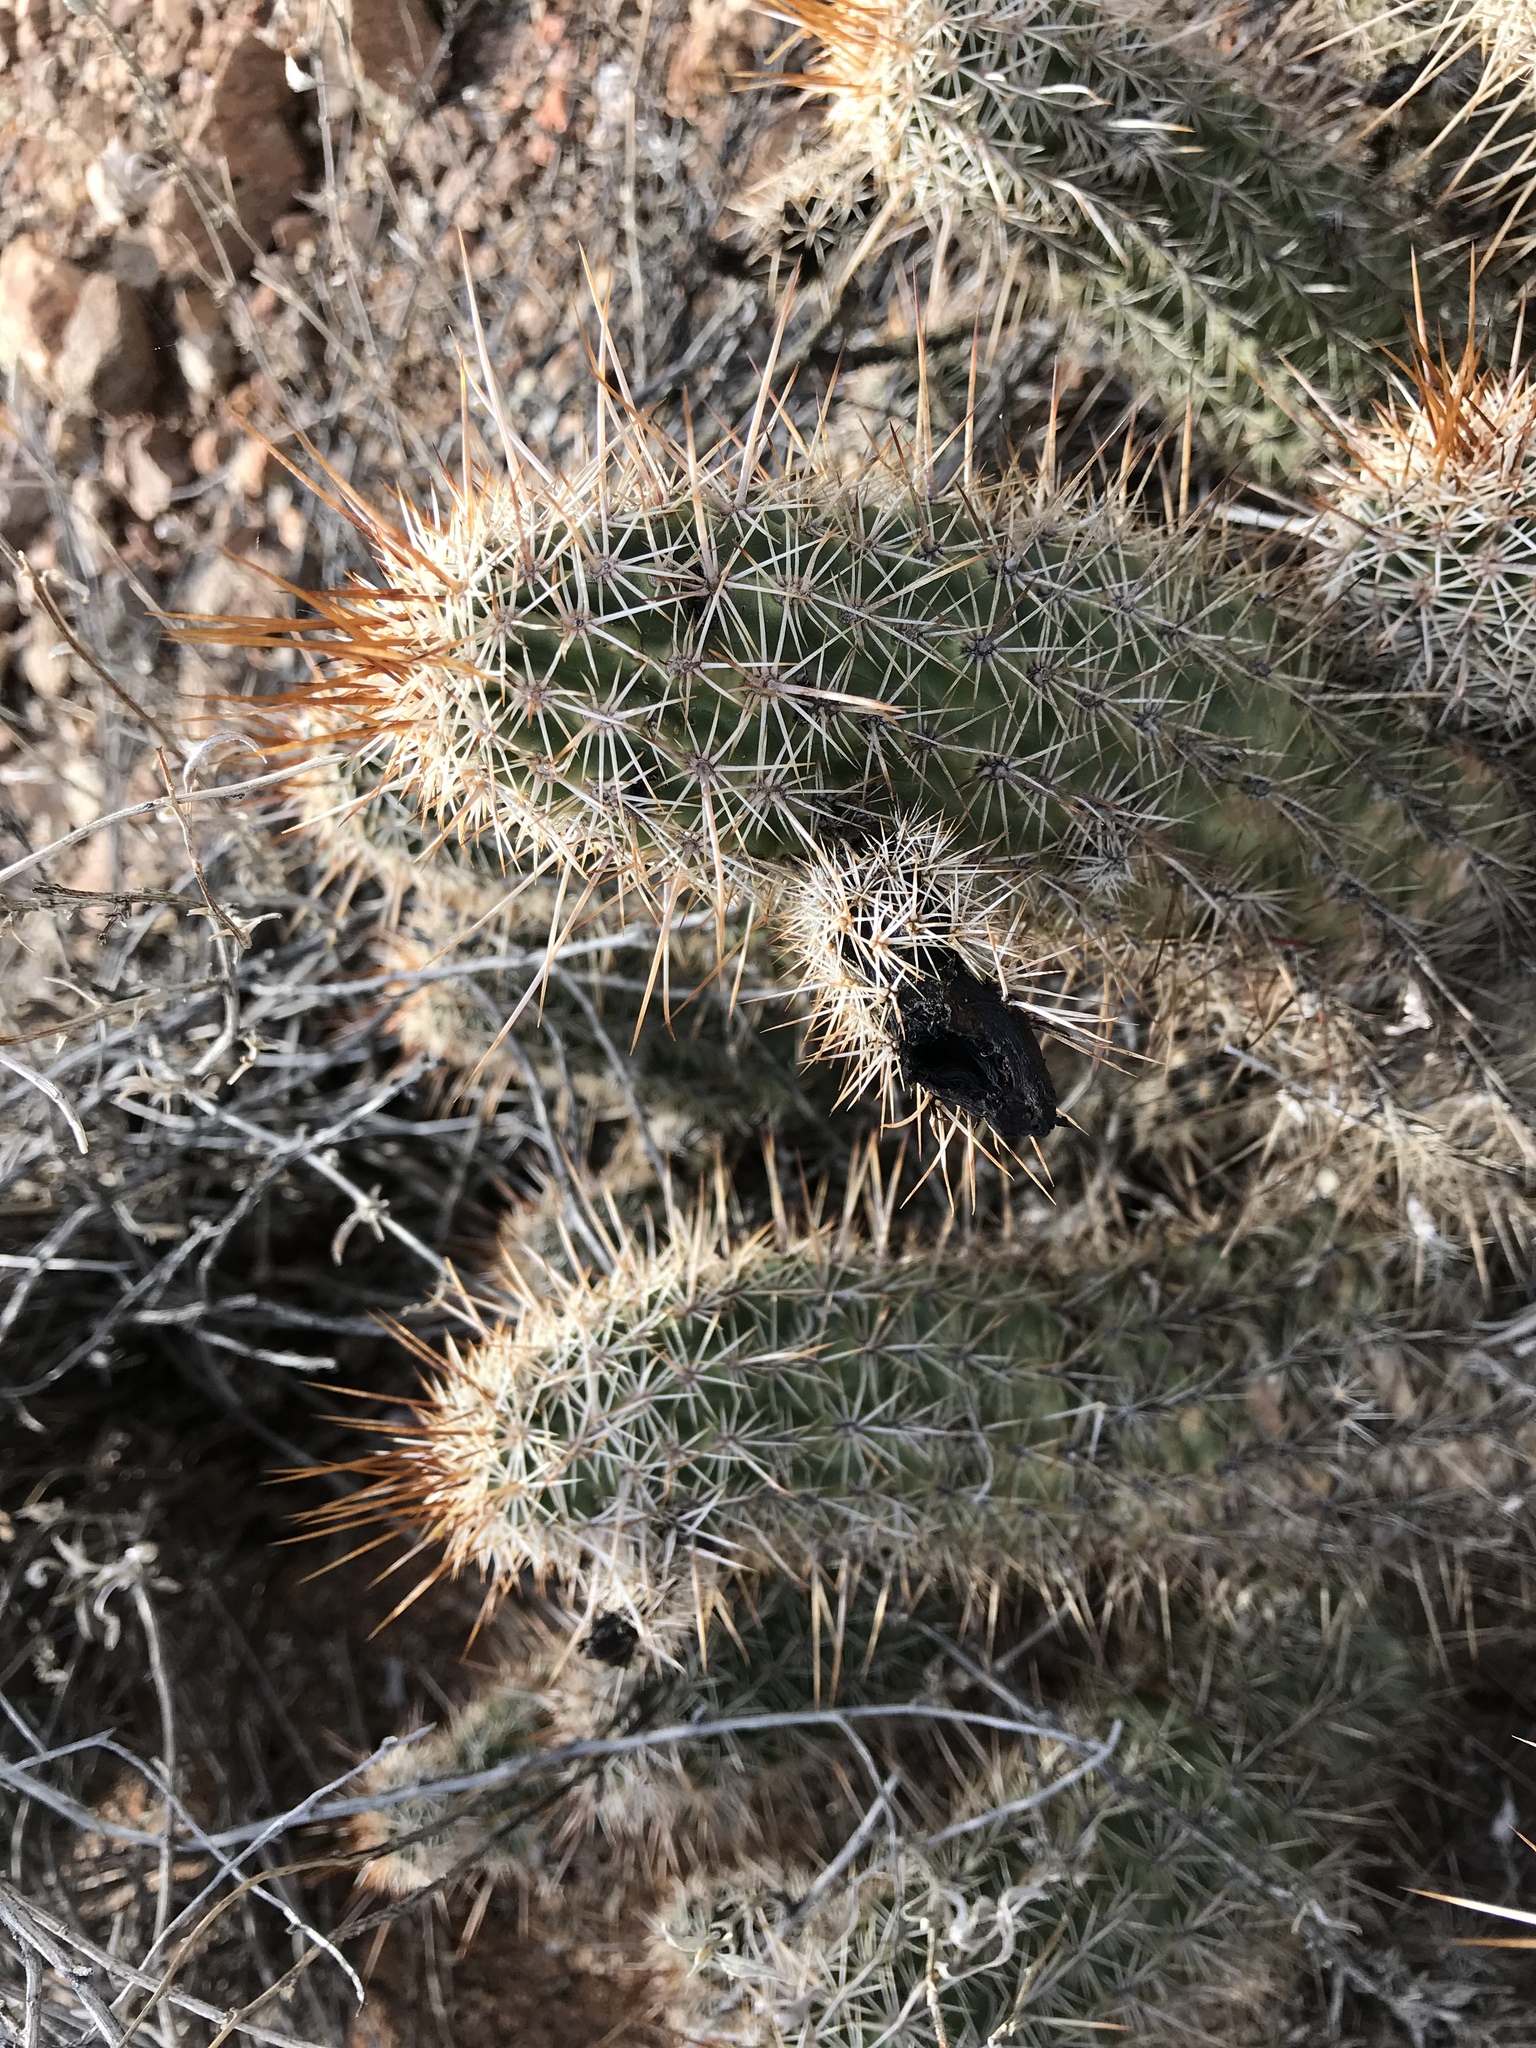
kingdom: Plantae
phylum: Tracheophyta
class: Magnoliopsida
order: Caryophyllales
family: Cactaceae
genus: Echinocereus
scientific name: Echinocereus engelmannii
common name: Engelmann's hedgehog cactus
